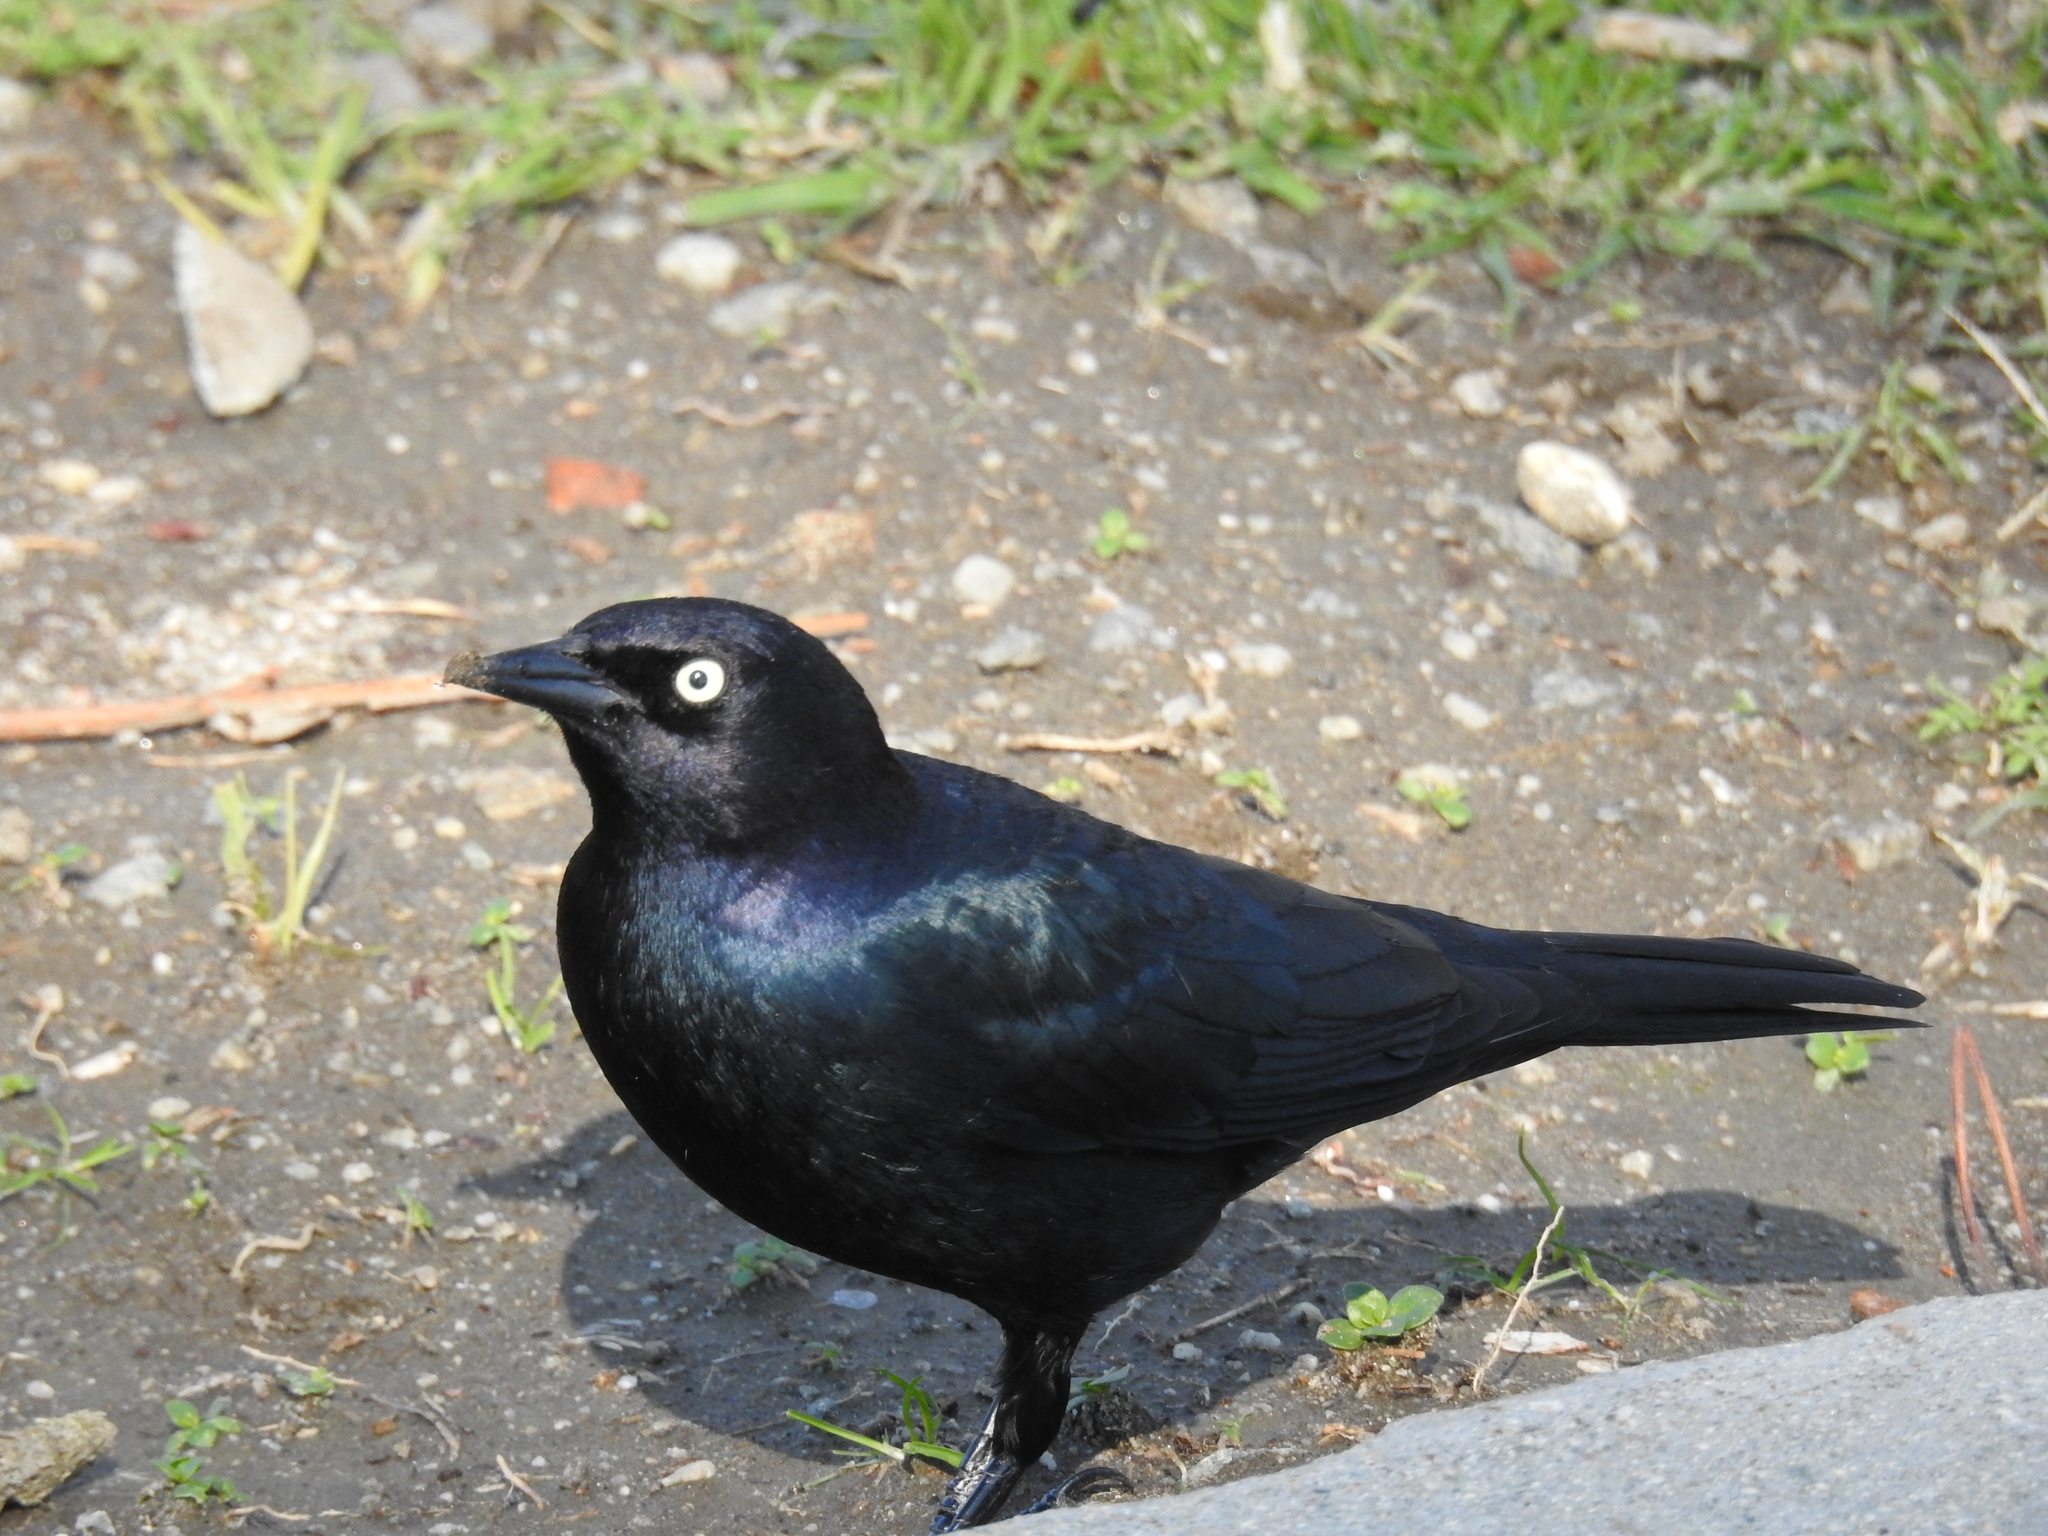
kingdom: Animalia
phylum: Chordata
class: Aves
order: Passeriformes
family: Icteridae
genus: Euphagus
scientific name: Euphagus cyanocephalus
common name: Brewer's blackbird
